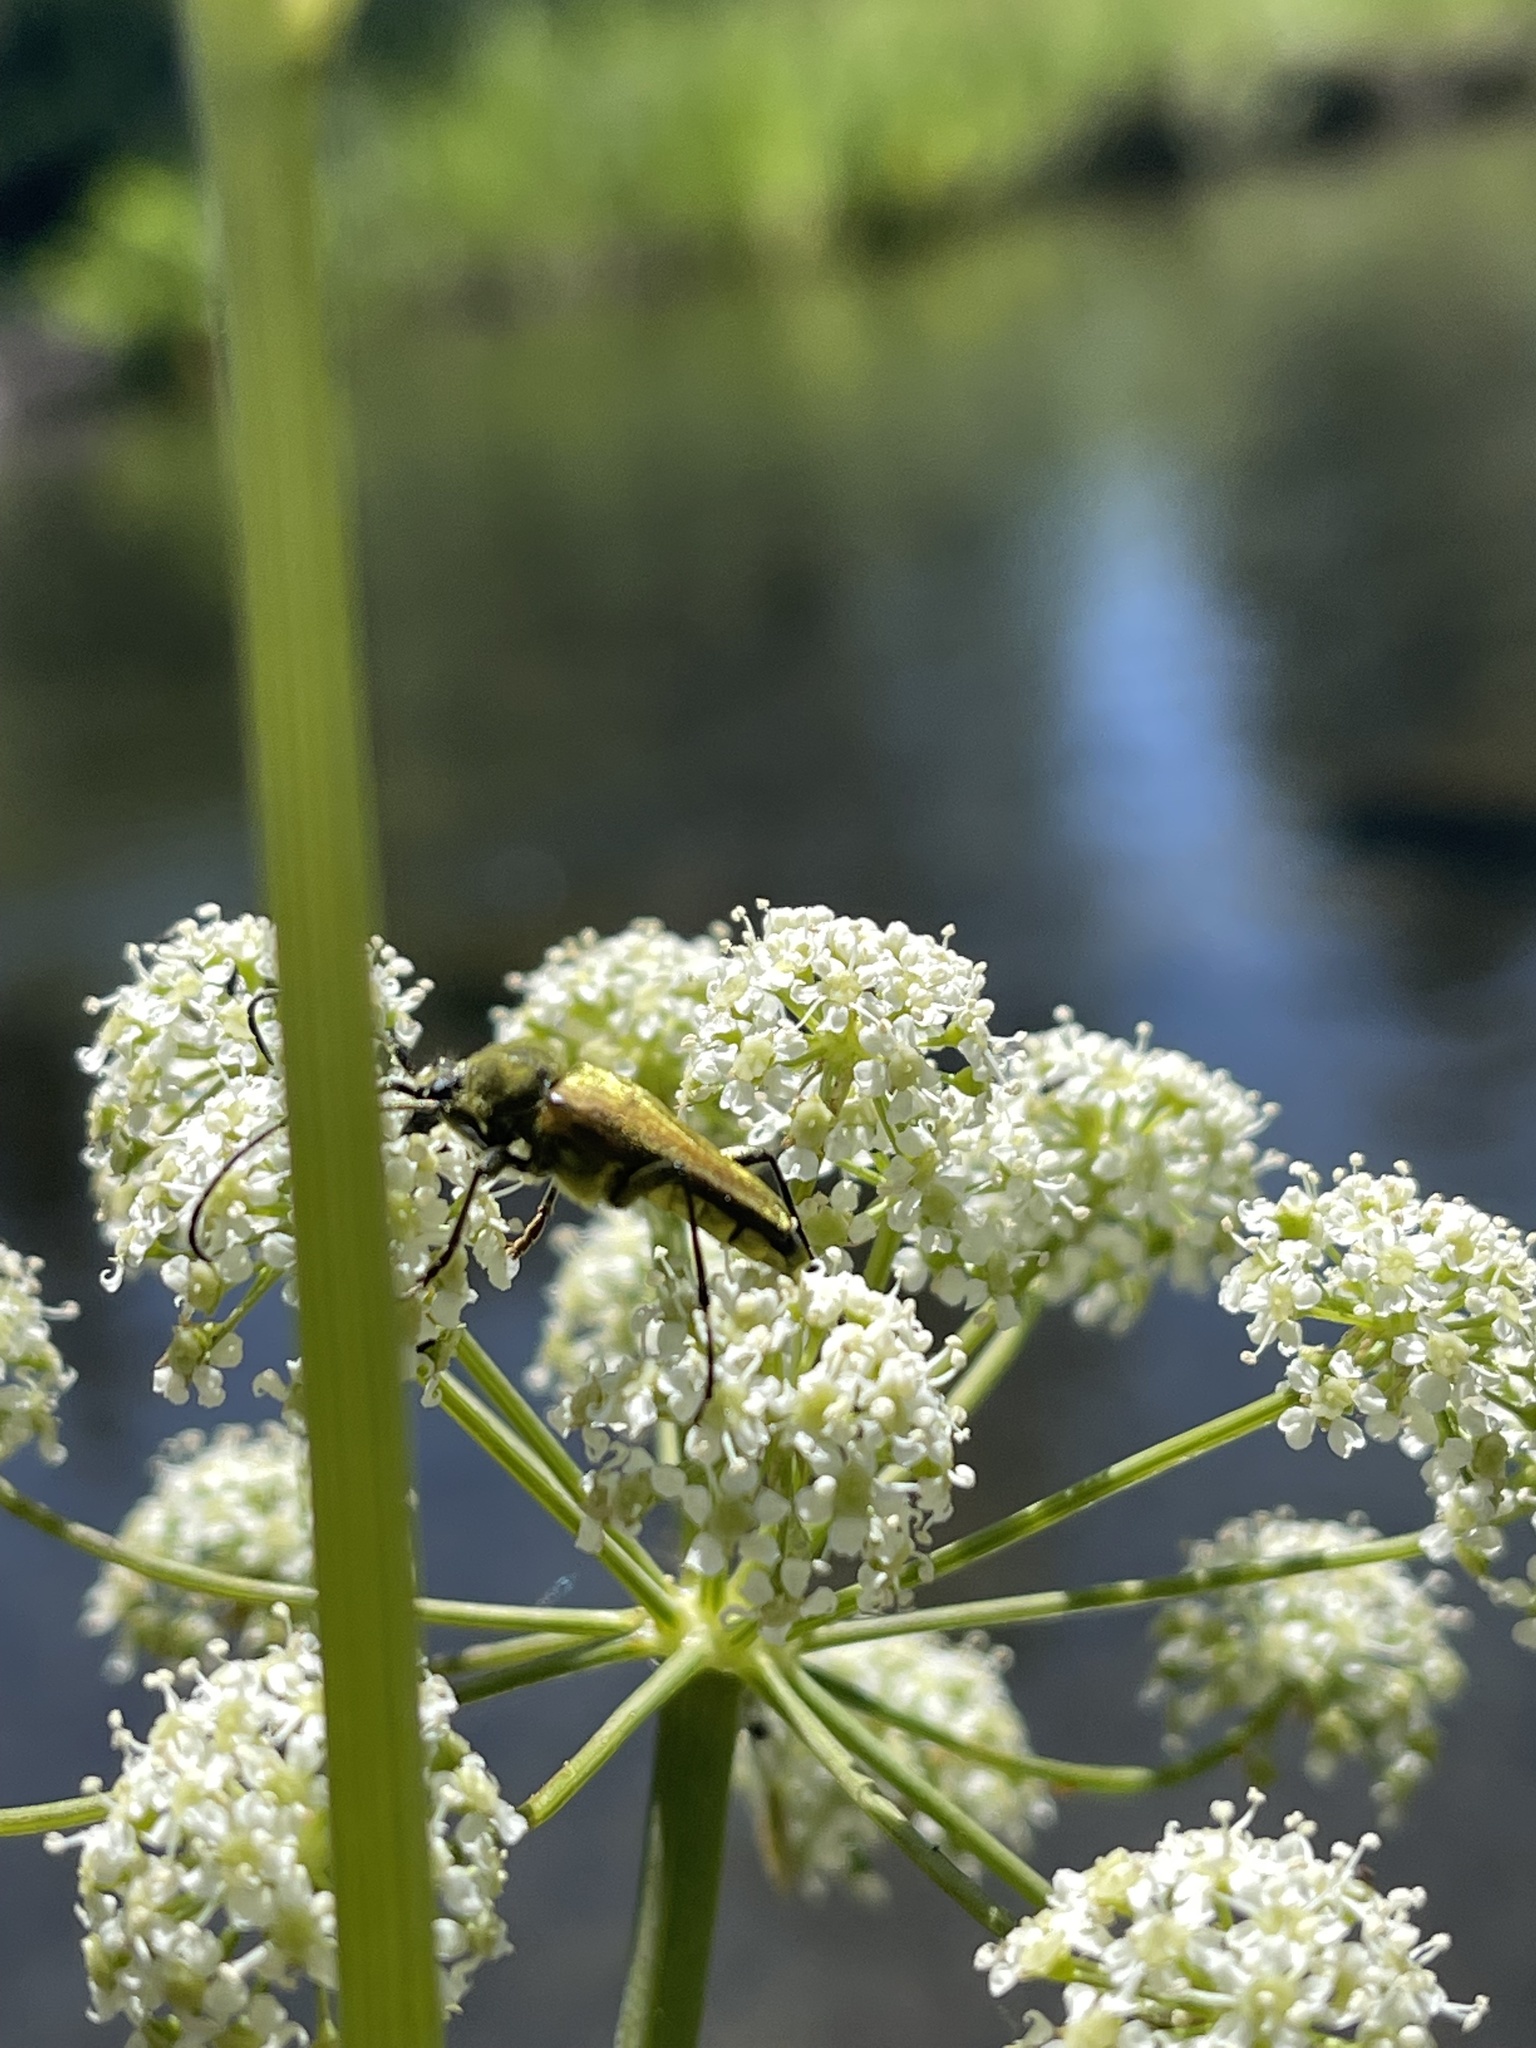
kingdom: Animalia
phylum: Arthropoda
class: Insecta
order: Coleoptera
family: Cerambycidae
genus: Cosmosalia
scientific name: Cosmosalia chrysocoma
